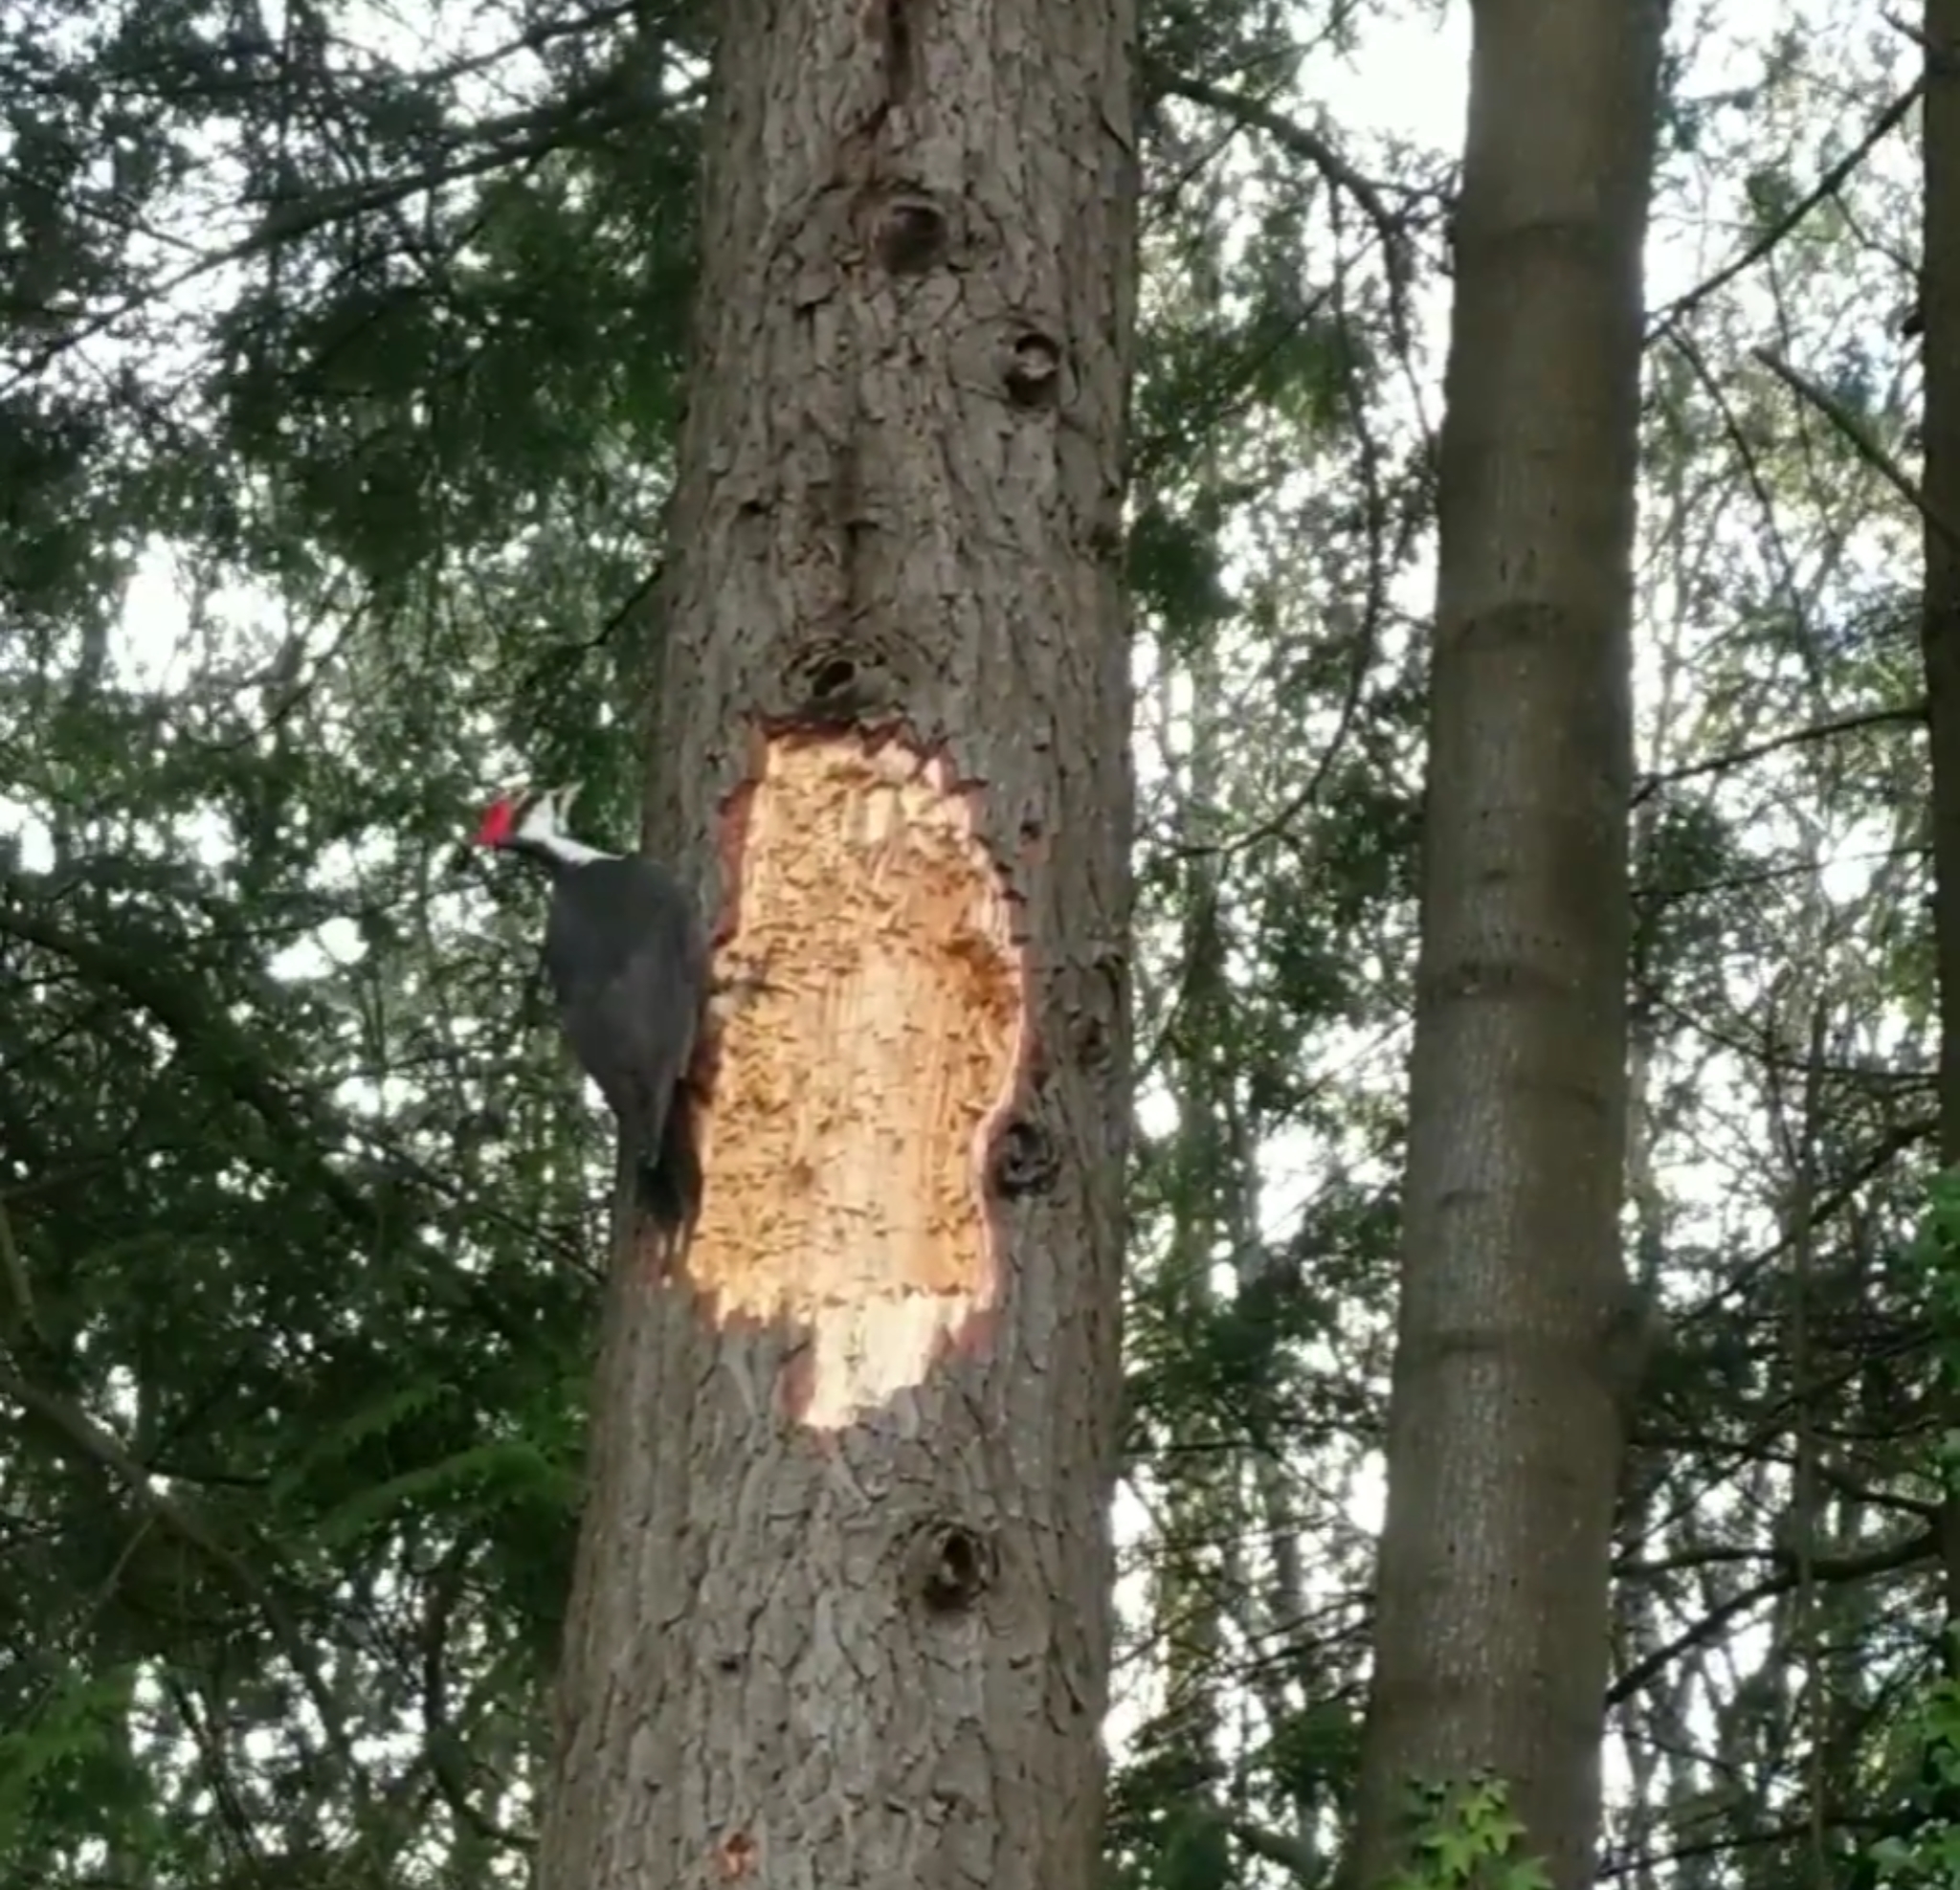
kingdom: Animalia
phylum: Chordata
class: Aves
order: Piciformes
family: Picidae
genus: Dryocopus
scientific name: Dryocopus pileatus
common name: Pileated woodpecker
